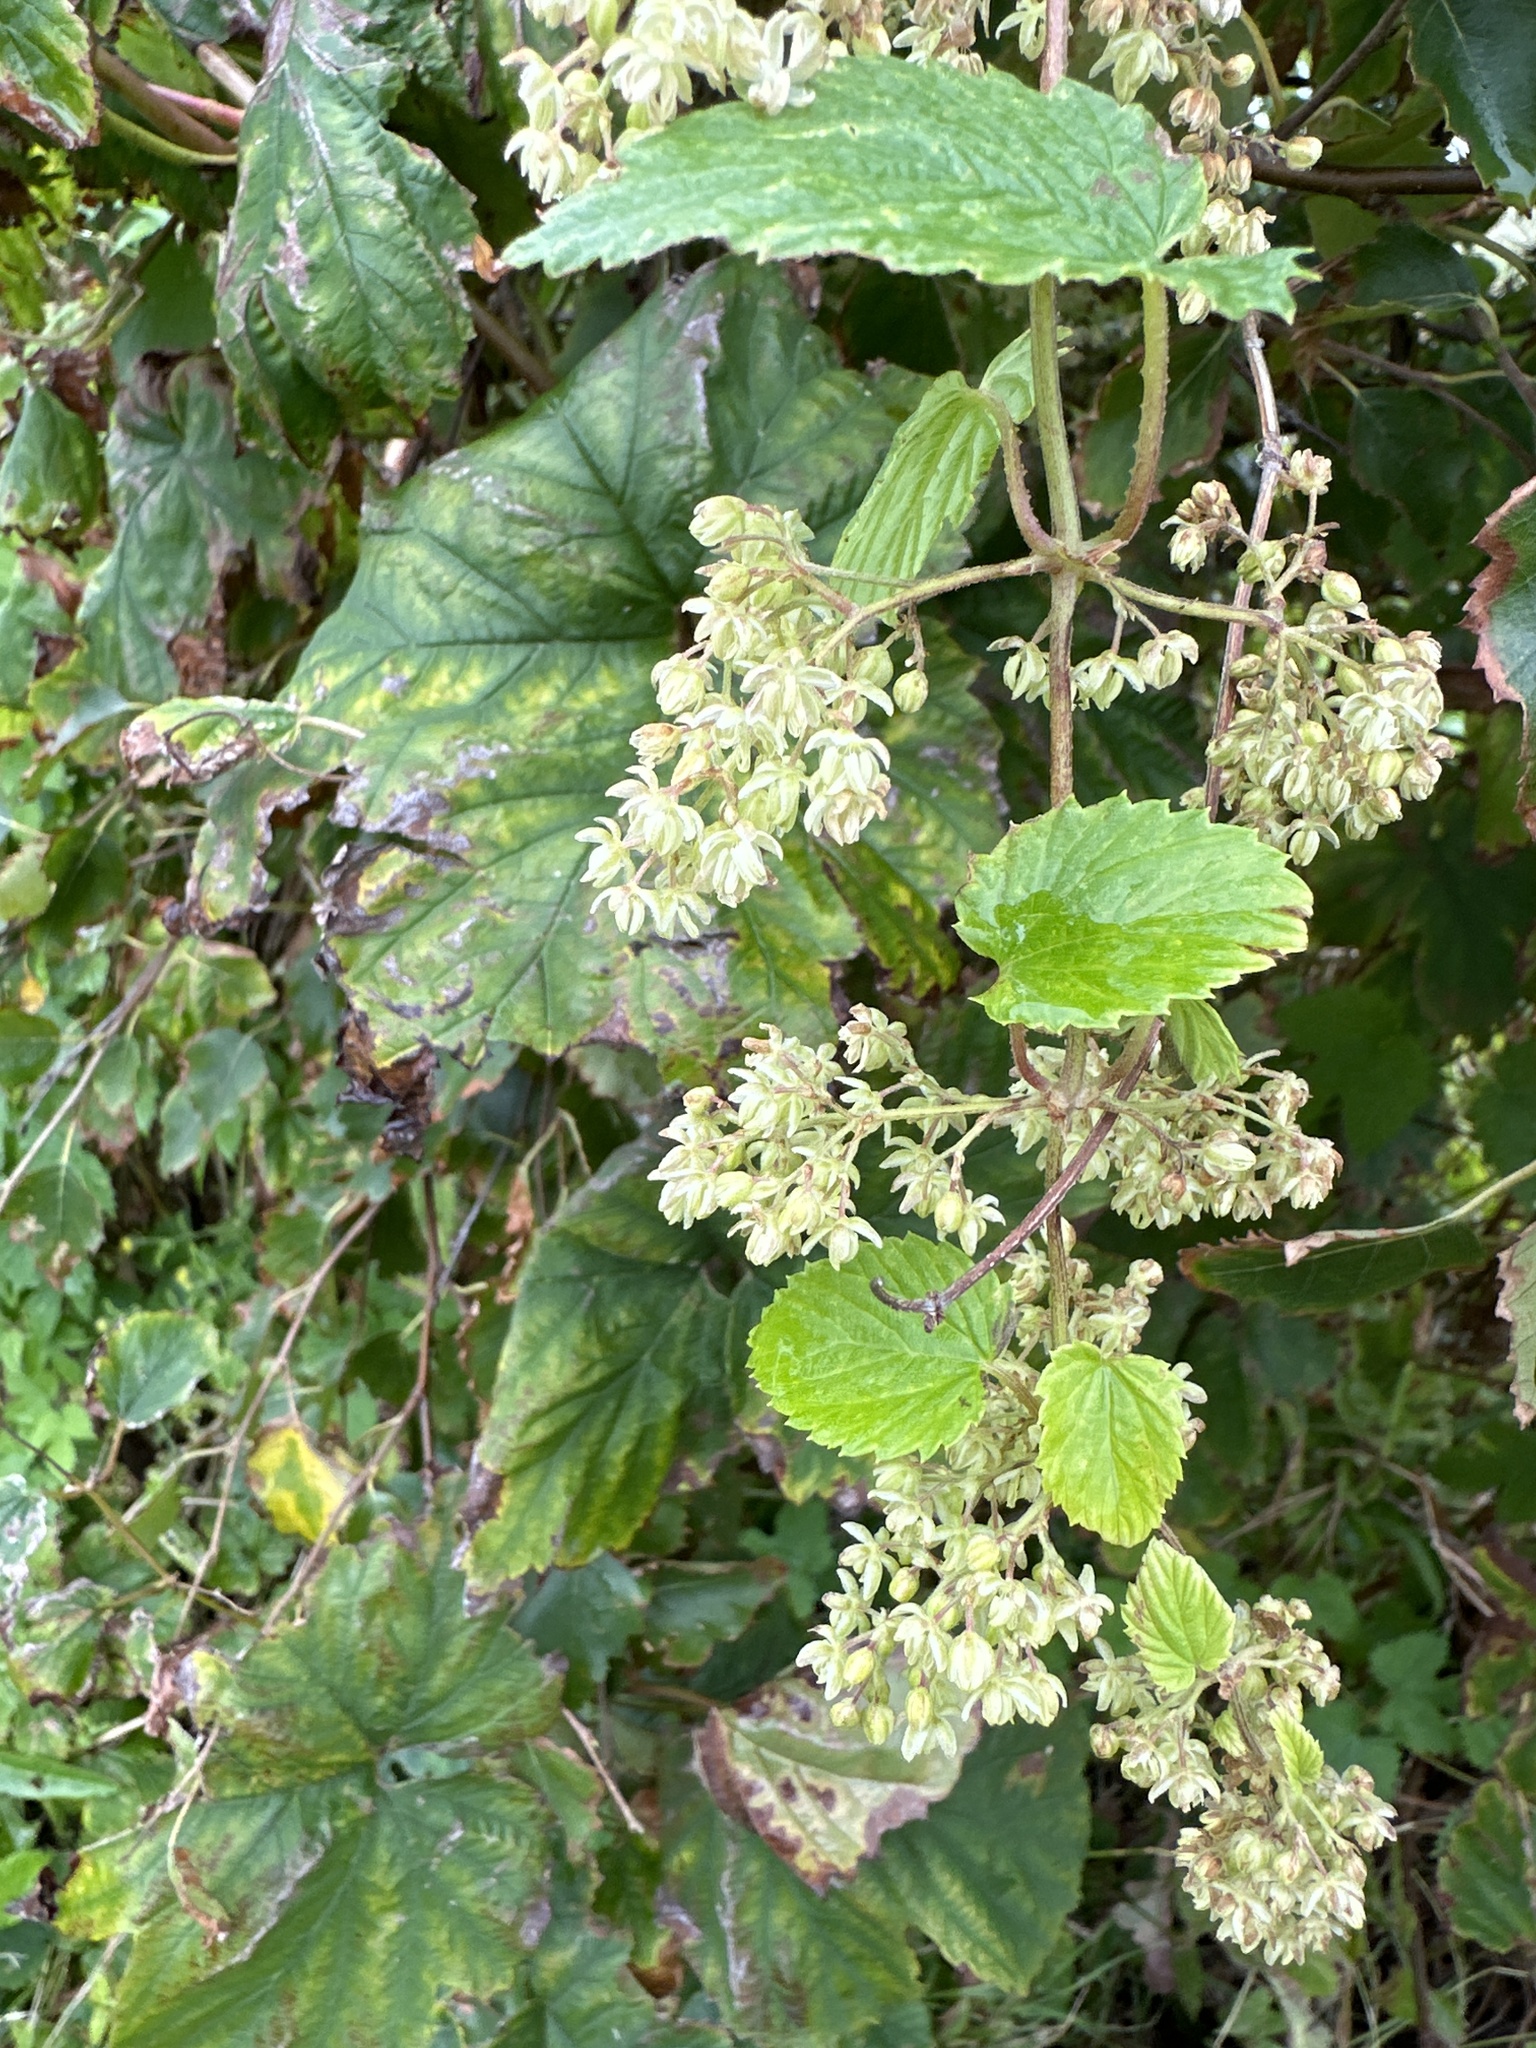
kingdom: Plantae
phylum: Tracheophyta
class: Magnoliopsida
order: Rosales
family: Cannabaceae
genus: Humulus
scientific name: Humulus lupulus
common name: Hop
